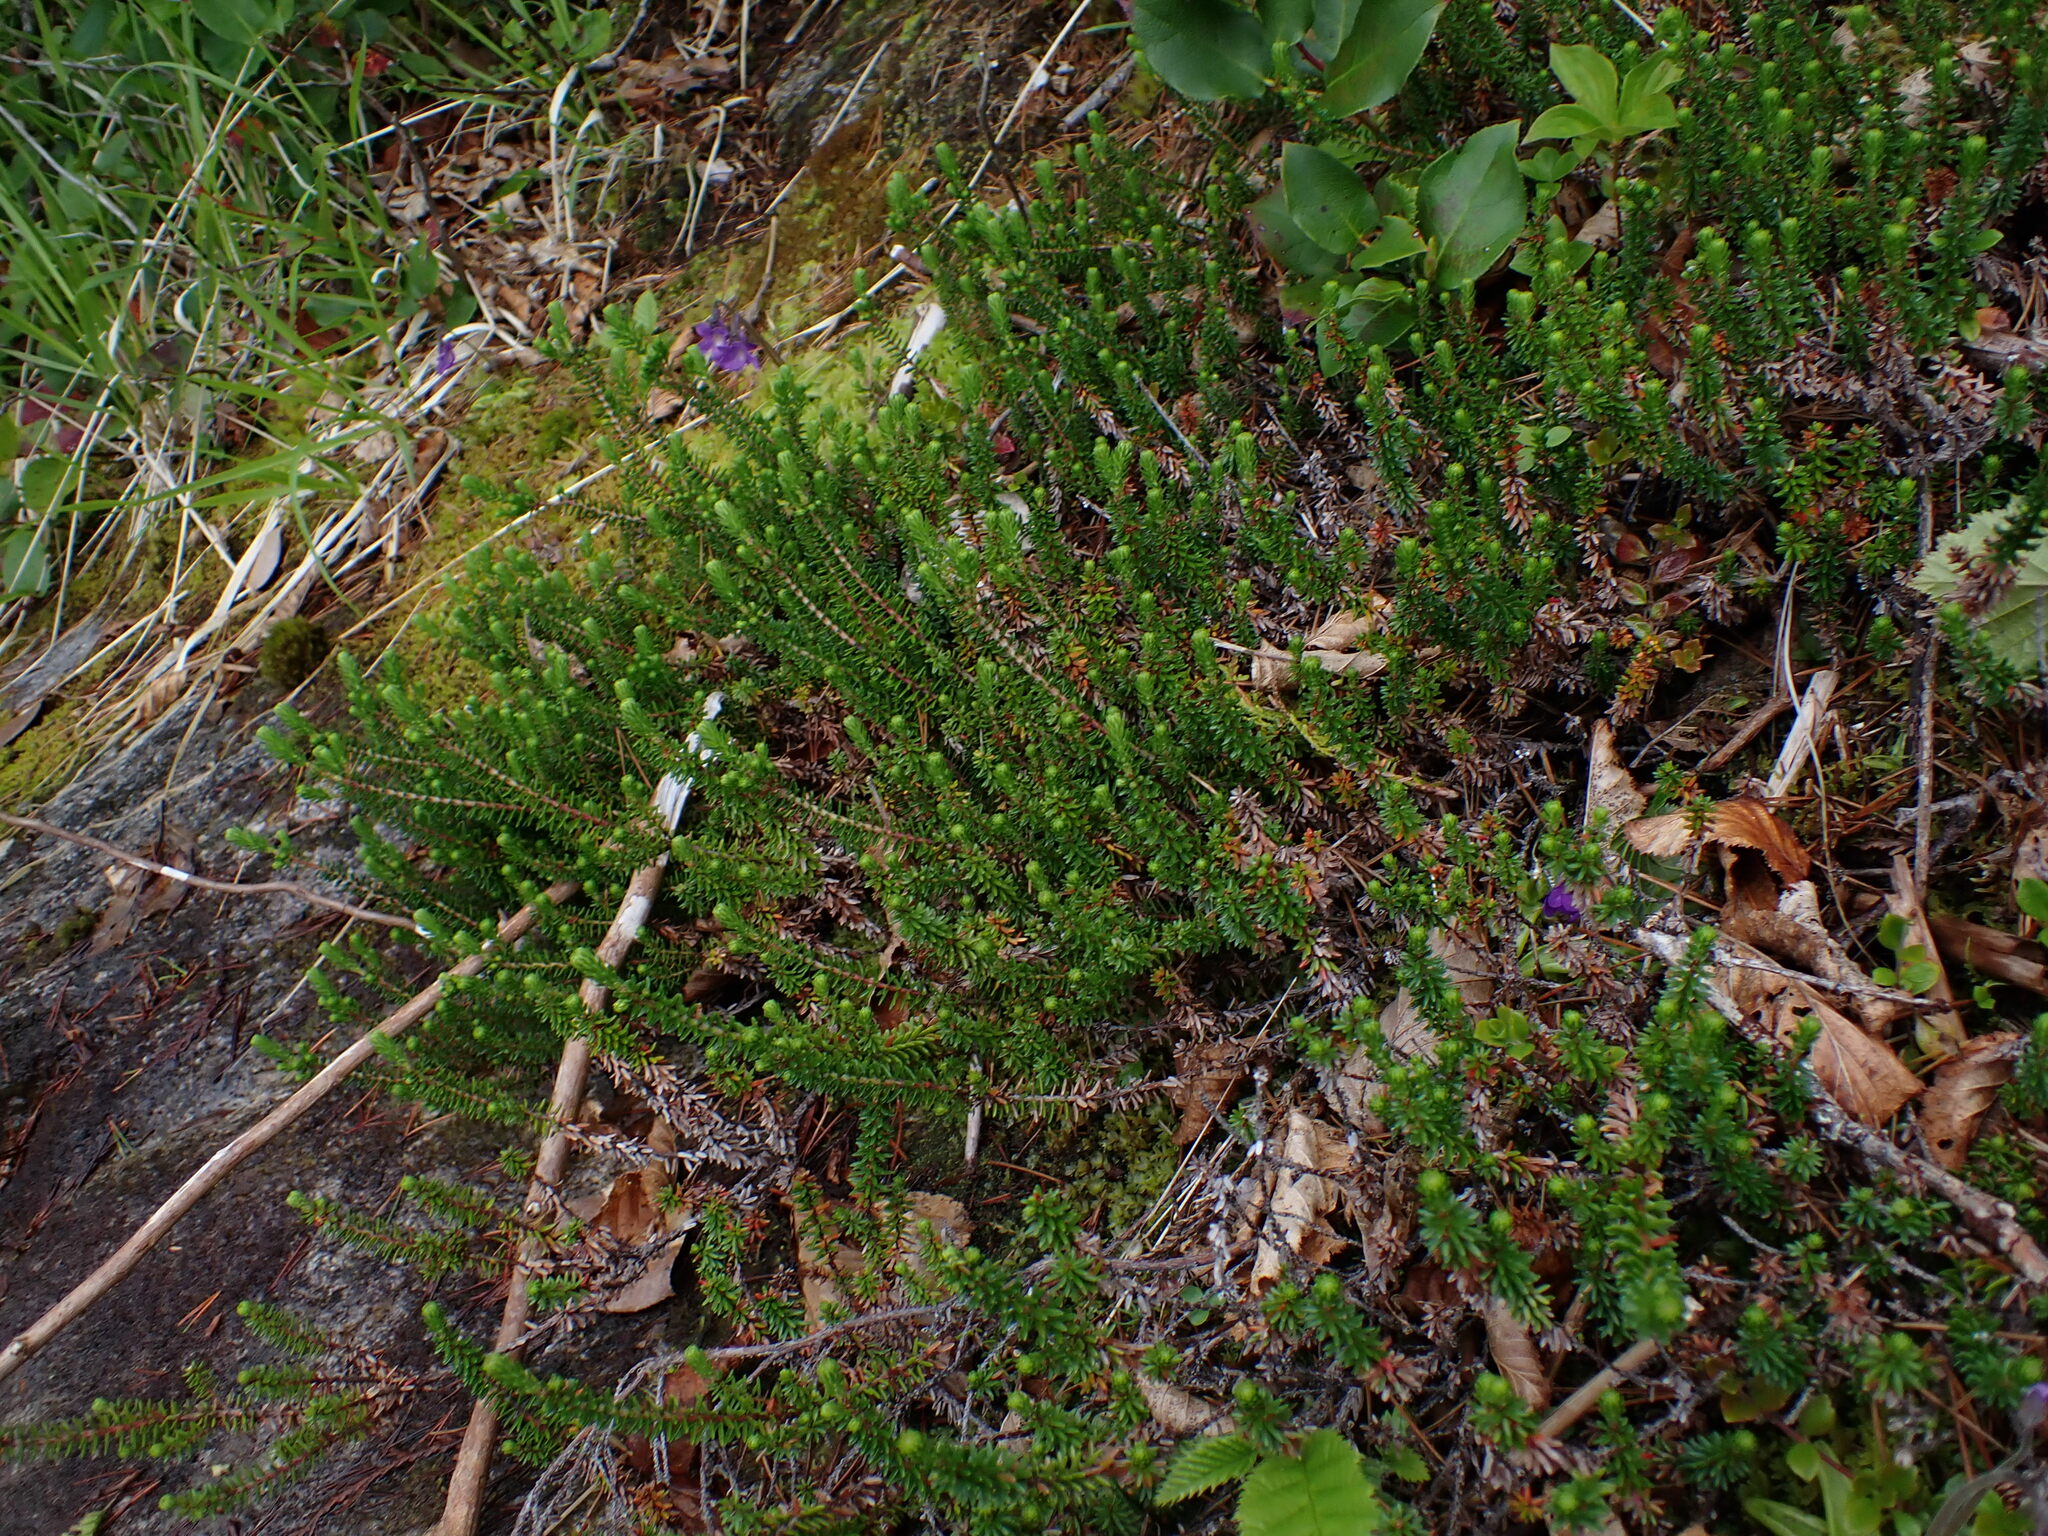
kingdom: Plantae
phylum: Tracheophyta
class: Magnoliopsida
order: Ericales
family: Ericaceae
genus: Empetrum
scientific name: Empetrum nigrum
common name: Black crowberry
